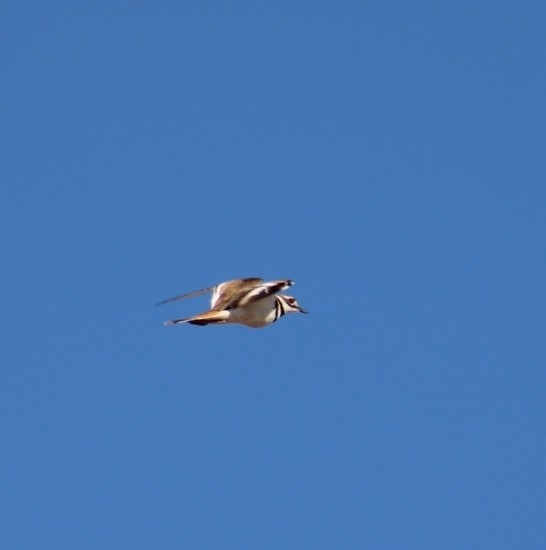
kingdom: Animalia
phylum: Chordata
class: Aves
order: Charadriiformes
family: Charadriidae
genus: Charadrius
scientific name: Charadrius vociferus
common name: Killdeer
